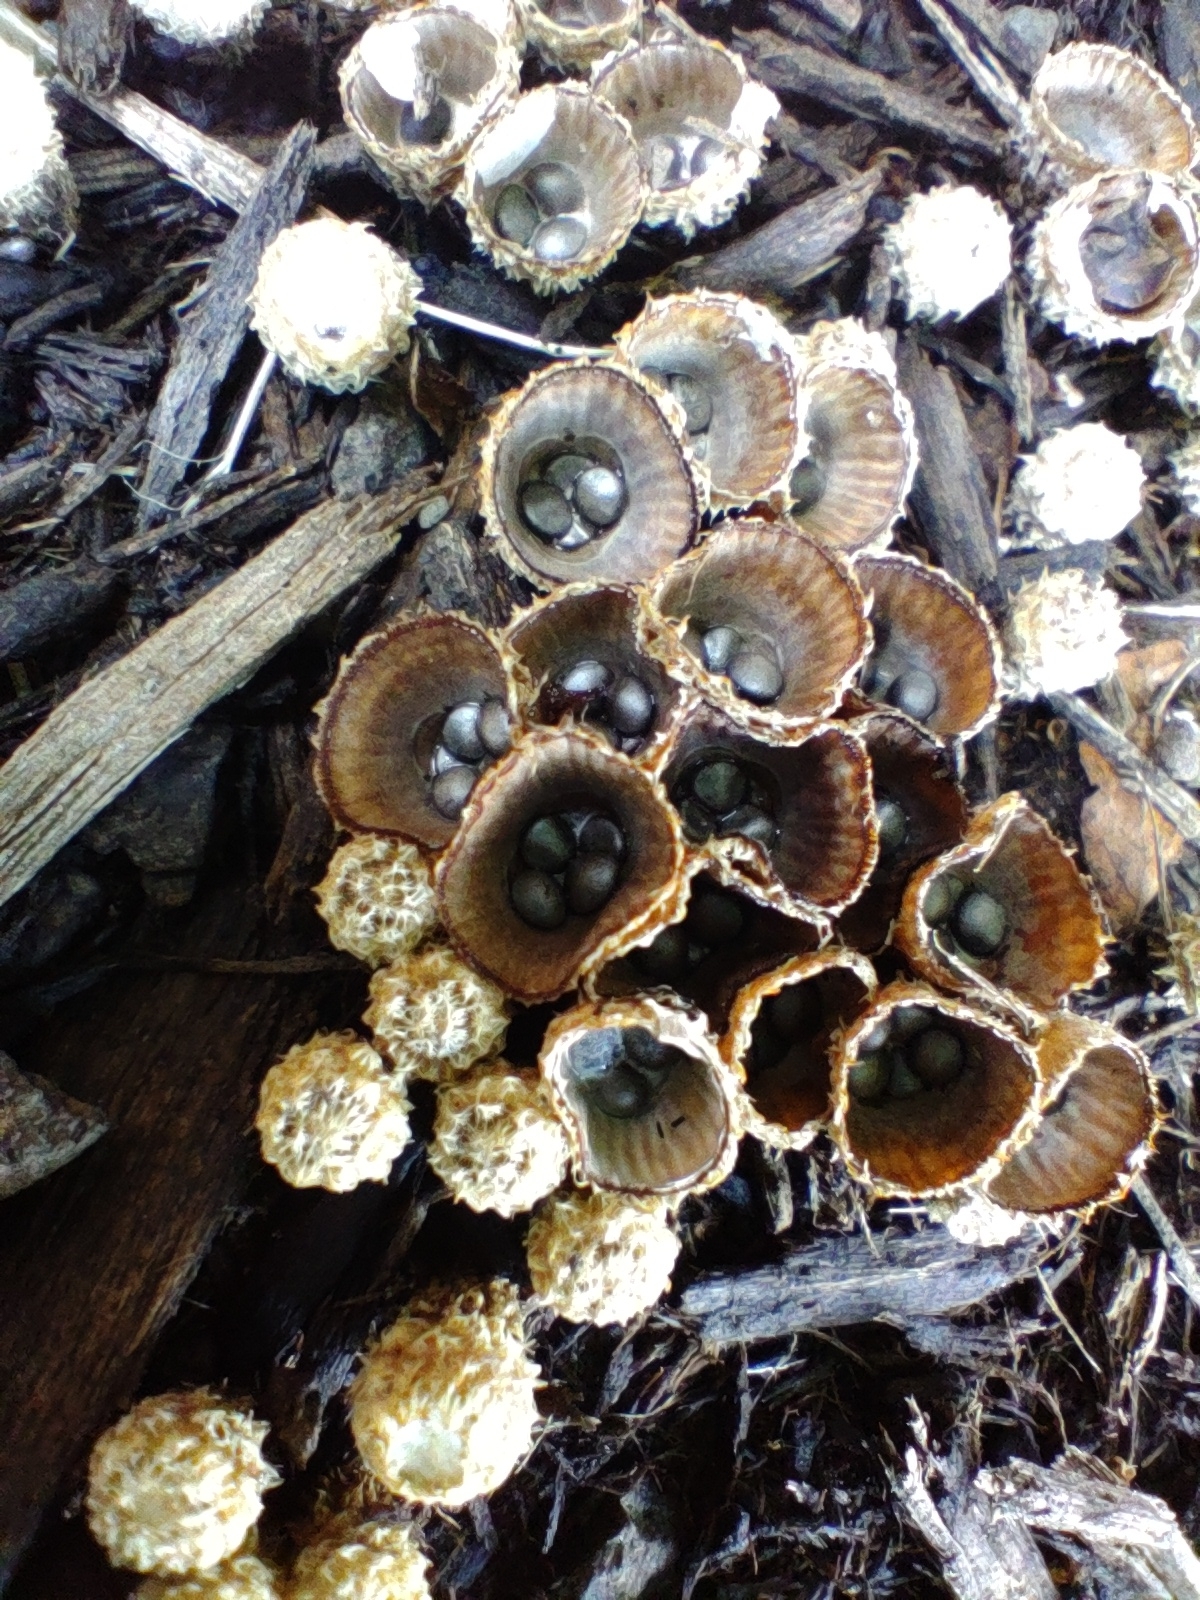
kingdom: Fungi
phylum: Basidiomycota
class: Agaricomycetes
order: Agaricales
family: Agaricaceae
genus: Cyathus
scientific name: Cyathus striatus
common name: Fluted bird's nest
